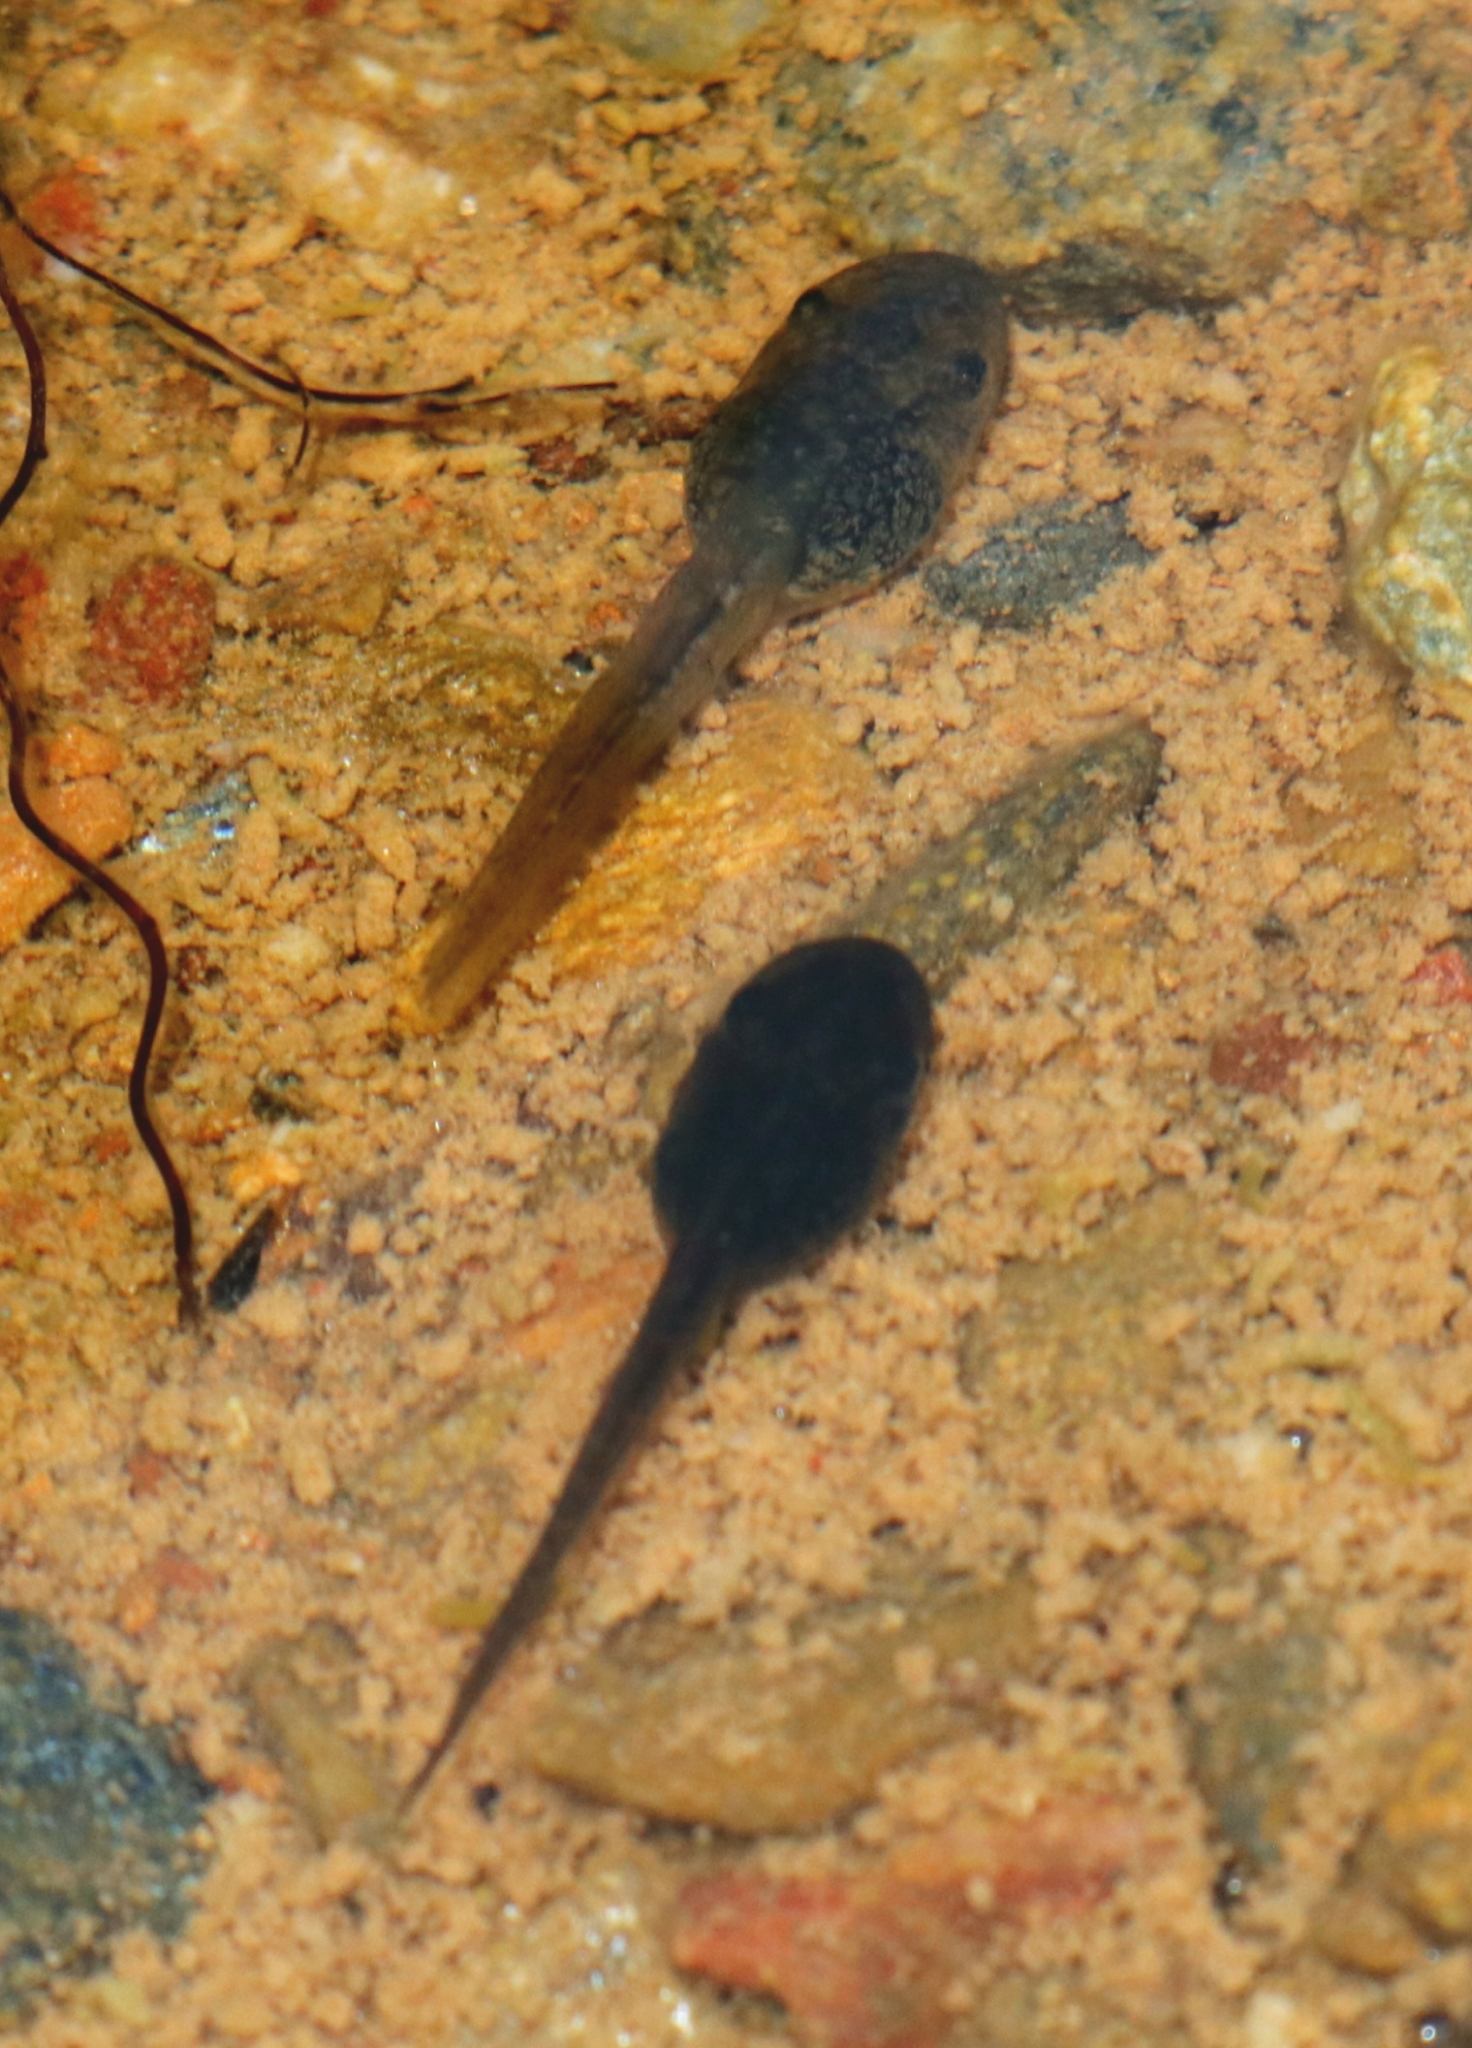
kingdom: Animalia
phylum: Chordata
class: Amphibia
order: Anura
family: Hylidae
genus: Pseudacris
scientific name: Pseudacris regilla
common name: Pacific chorus frog
